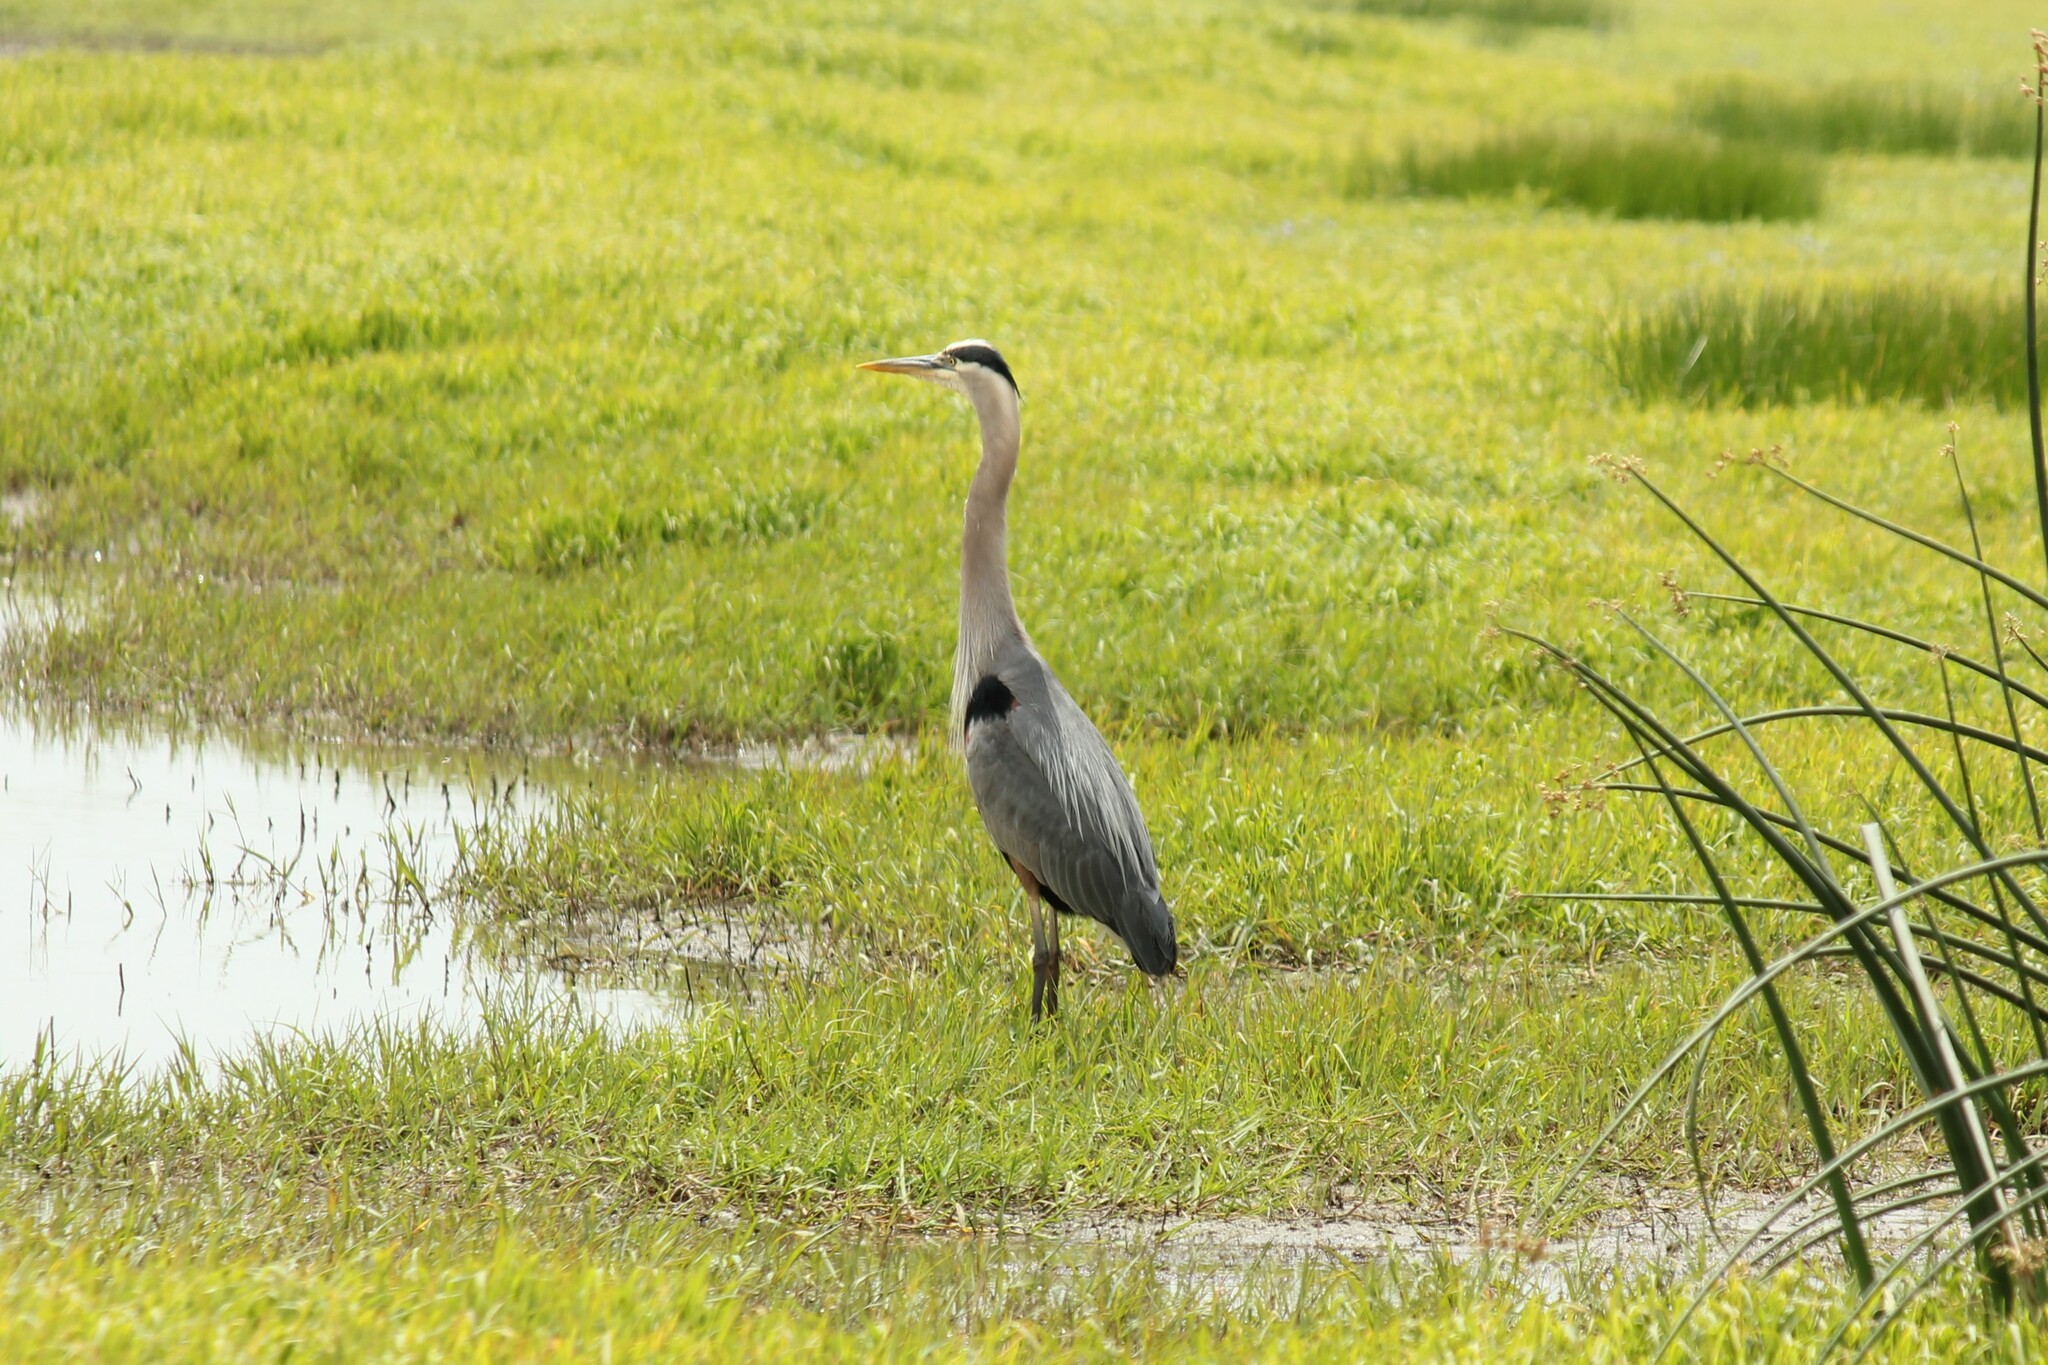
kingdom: Animalia
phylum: Chordata
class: Aves
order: Pelecaniformes
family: Ardeidae
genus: Ardea
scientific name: Ardea herodias
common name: Great blue heron
